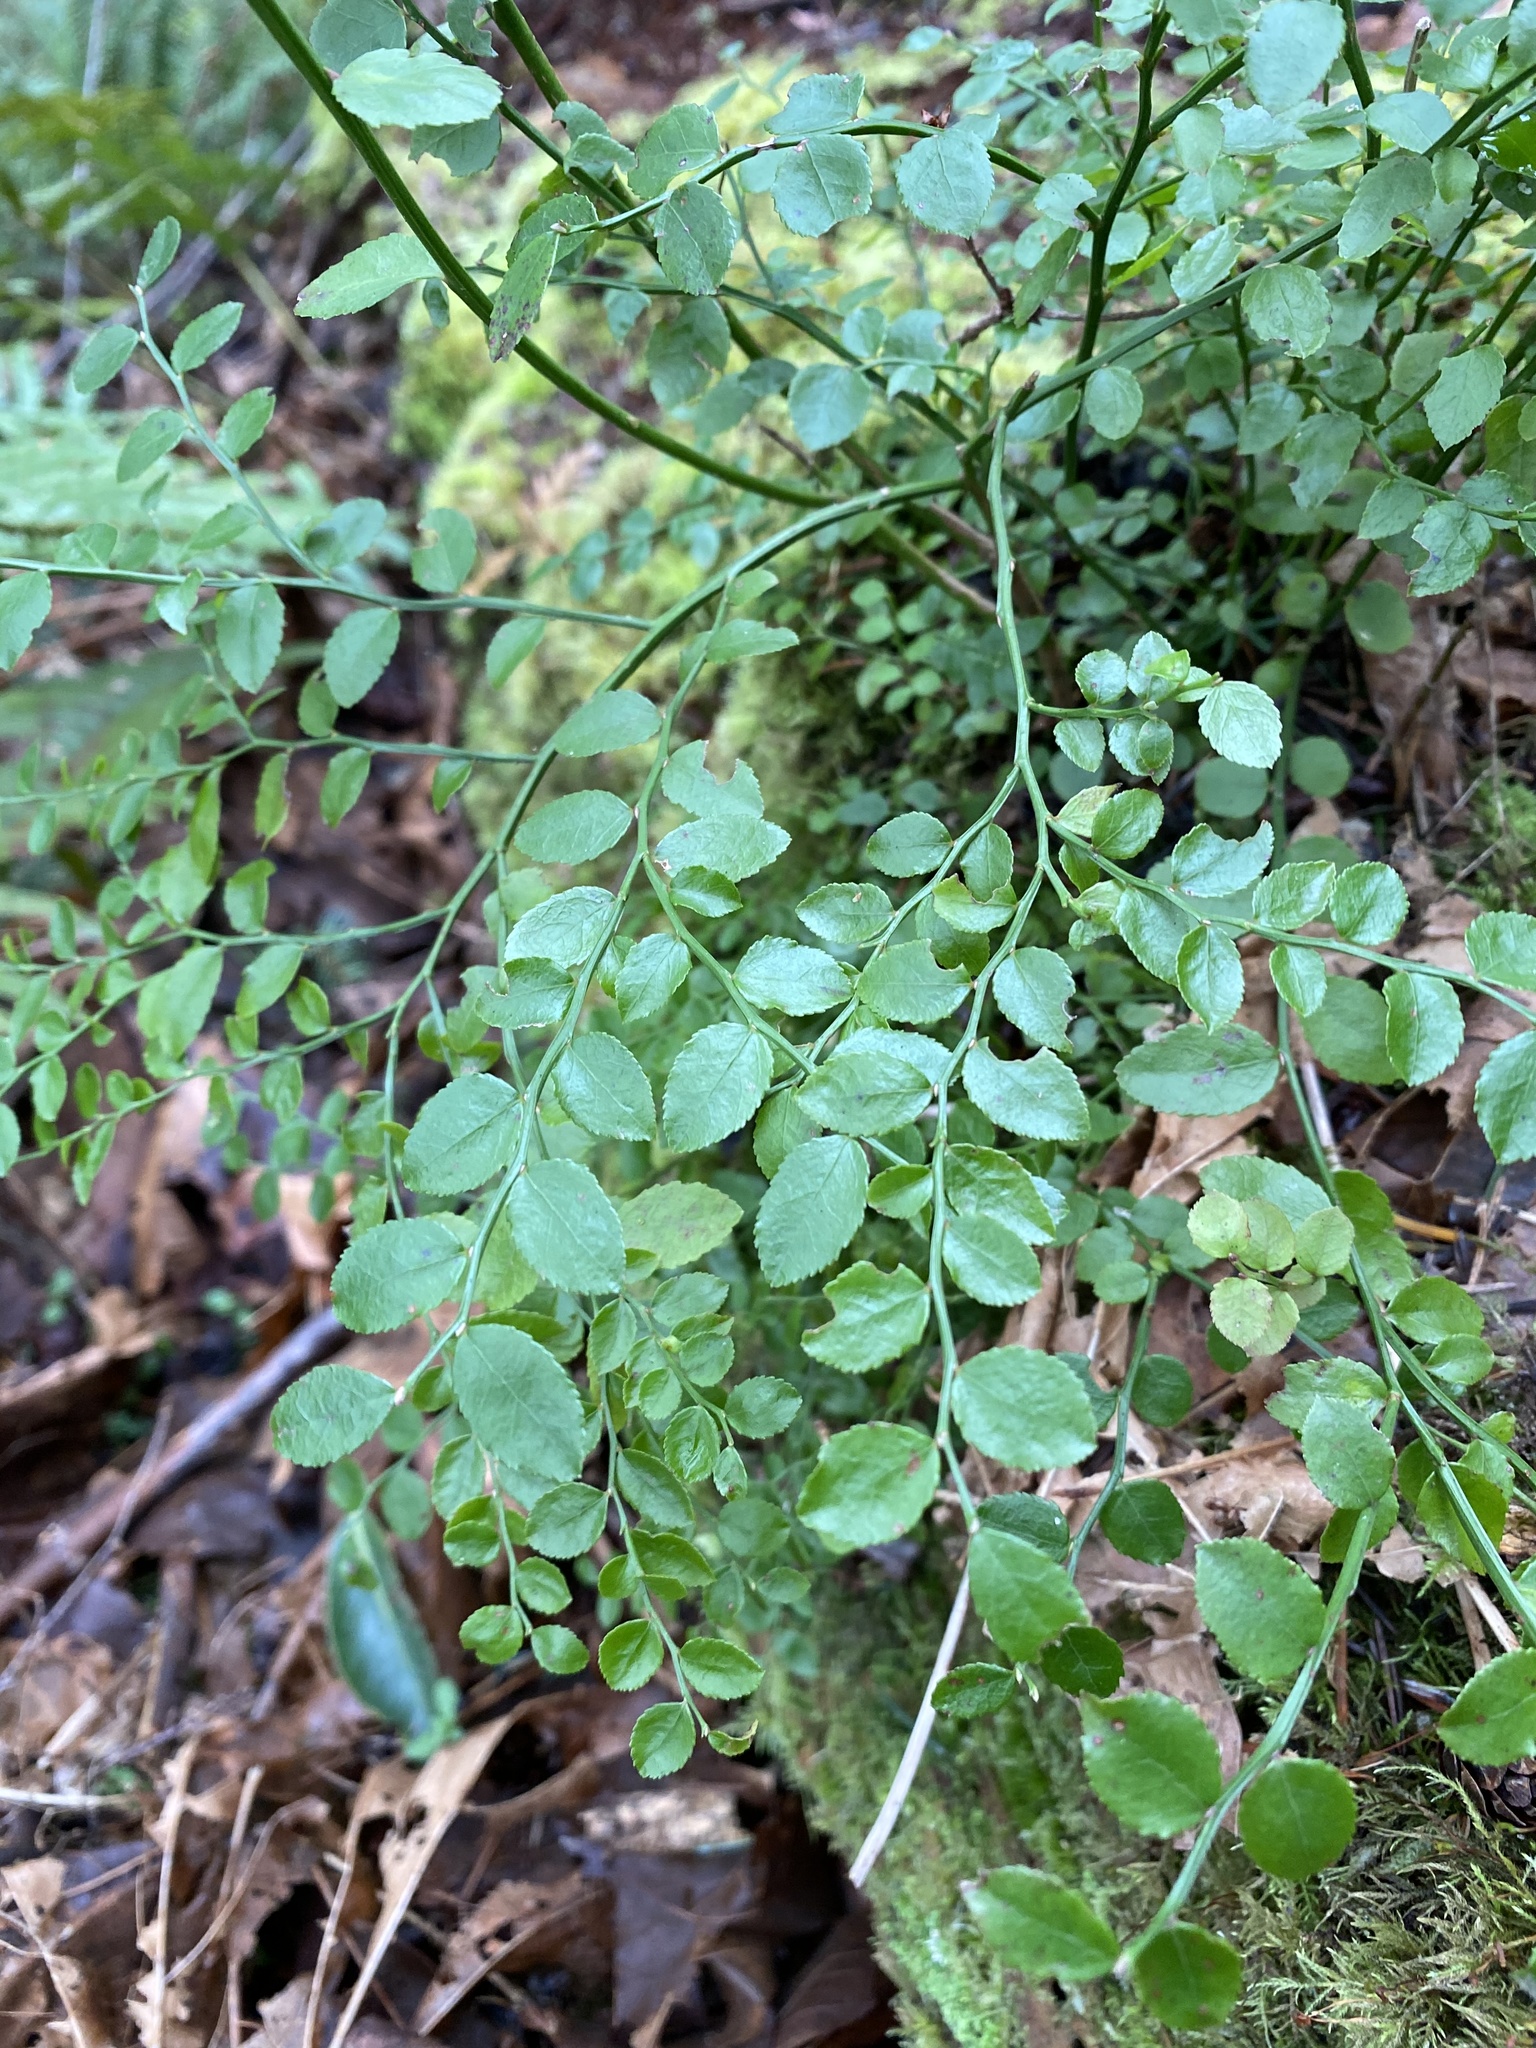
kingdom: Plantae
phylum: Tracheophyta
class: Magnoliopsida
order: Ericales
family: Ericaceae
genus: Vaccinium
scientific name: Vaccinium parvifolium
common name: Red-huckleberry
